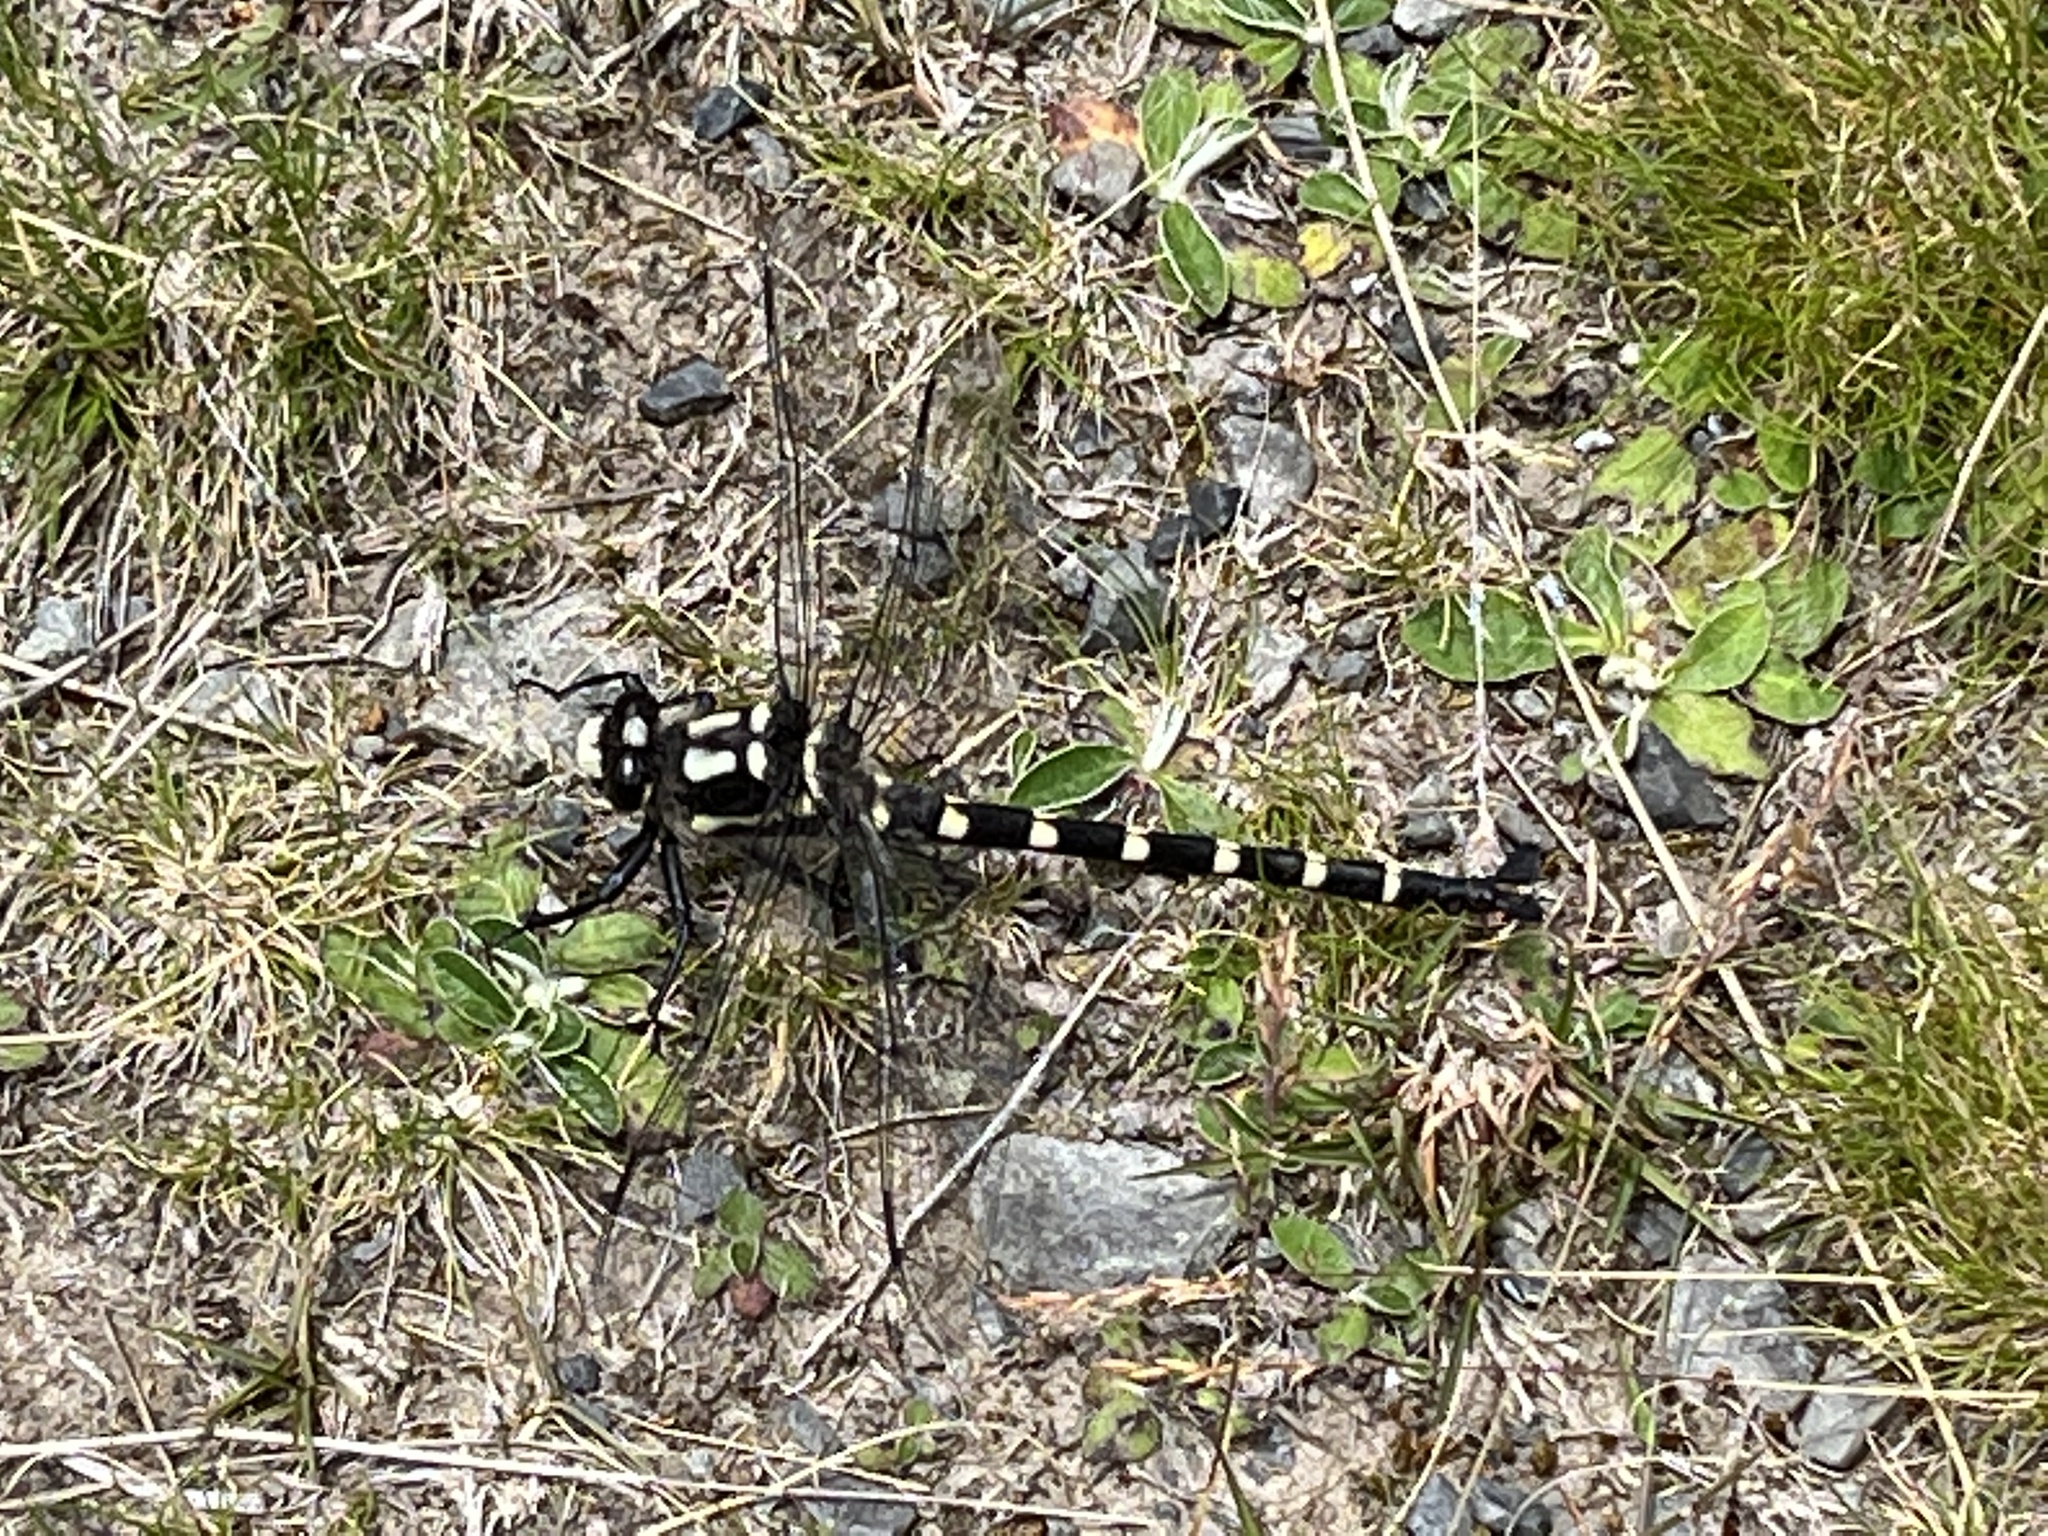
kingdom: Animalia
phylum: Arthropoda
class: Insecta
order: Odonata
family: Petaluridae
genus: Uropetala
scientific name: Uropetala chiltoni
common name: Mountain giant dragonfly
